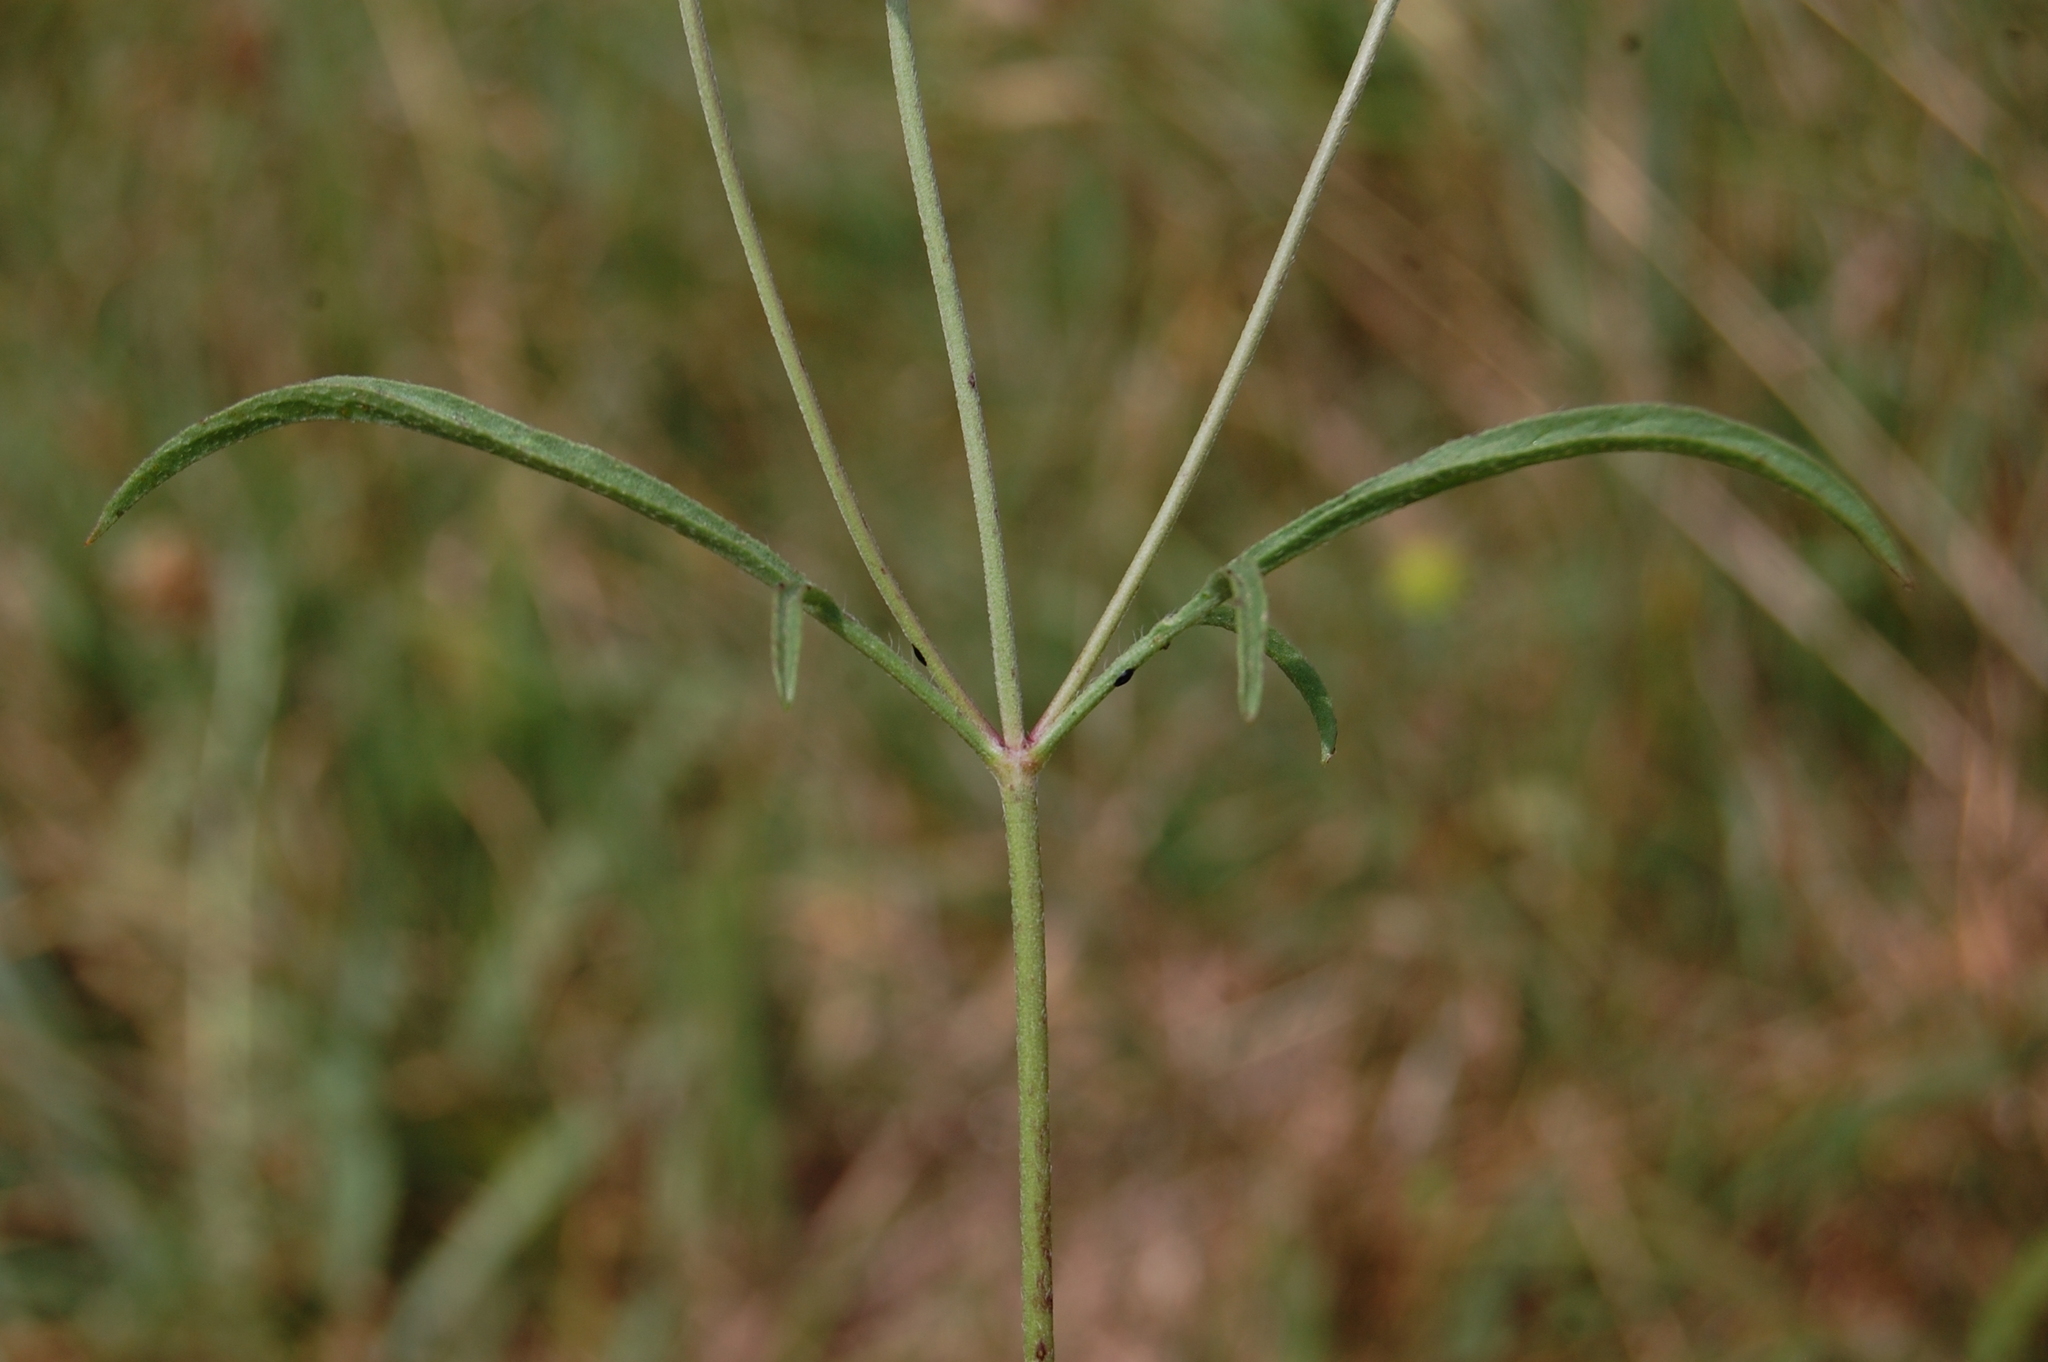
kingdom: Plantae
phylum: Tracheophyta
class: Magnoliopsida
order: Dipsacales
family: Caprifoliaceae
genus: Sixalix
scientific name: Sixalix maritima
